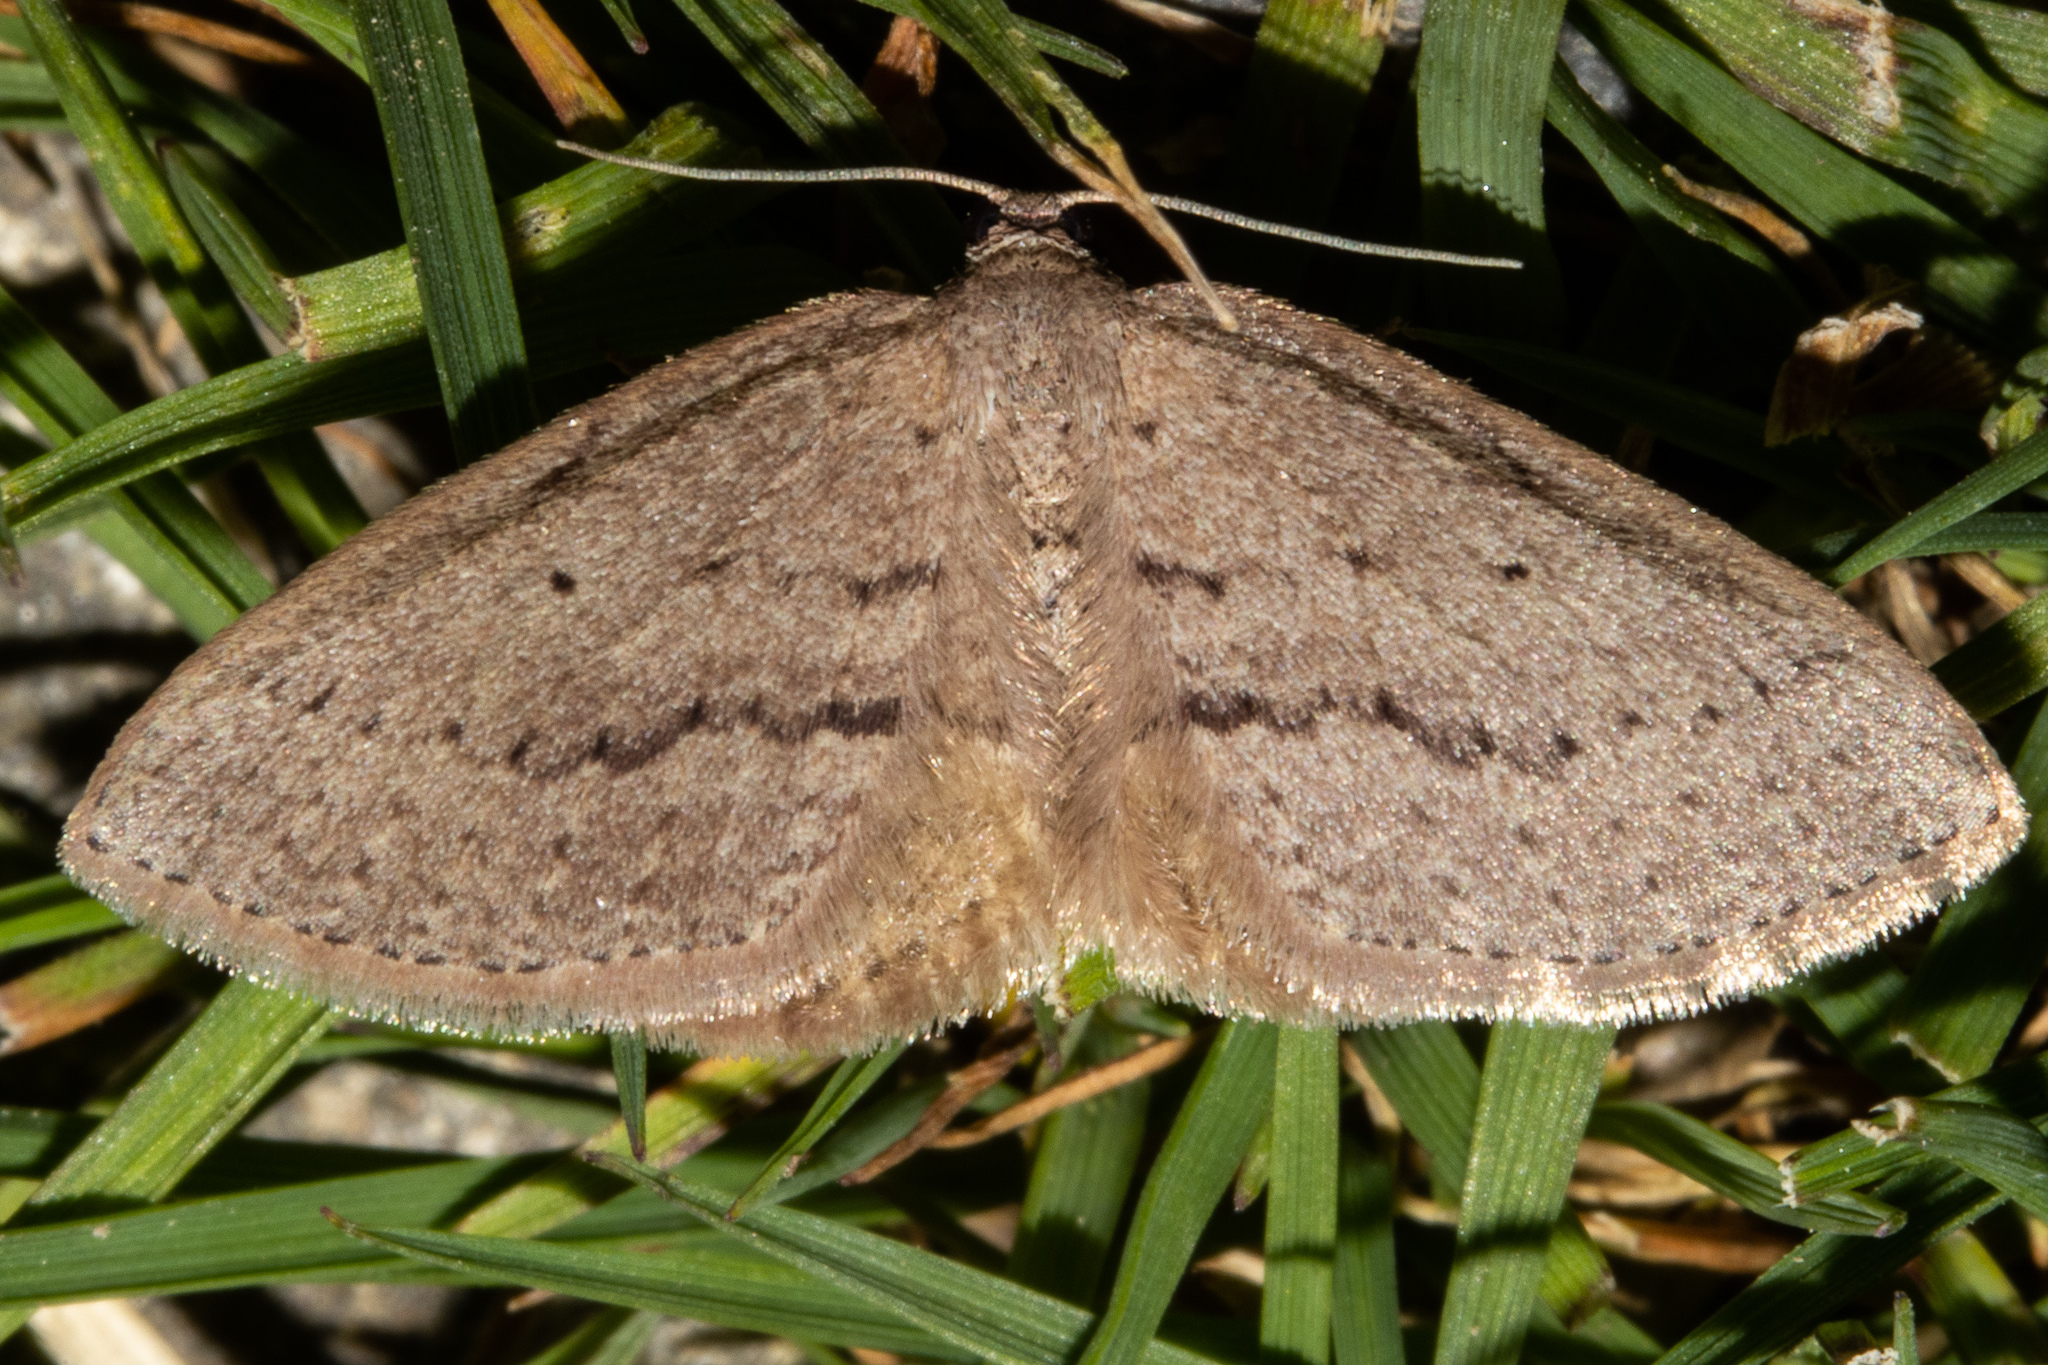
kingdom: Animalia
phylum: Arthropoda
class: Insecta
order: Lepidoptera
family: Geometridae
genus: Poecilasthena
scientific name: Poecilasthena schistaria
